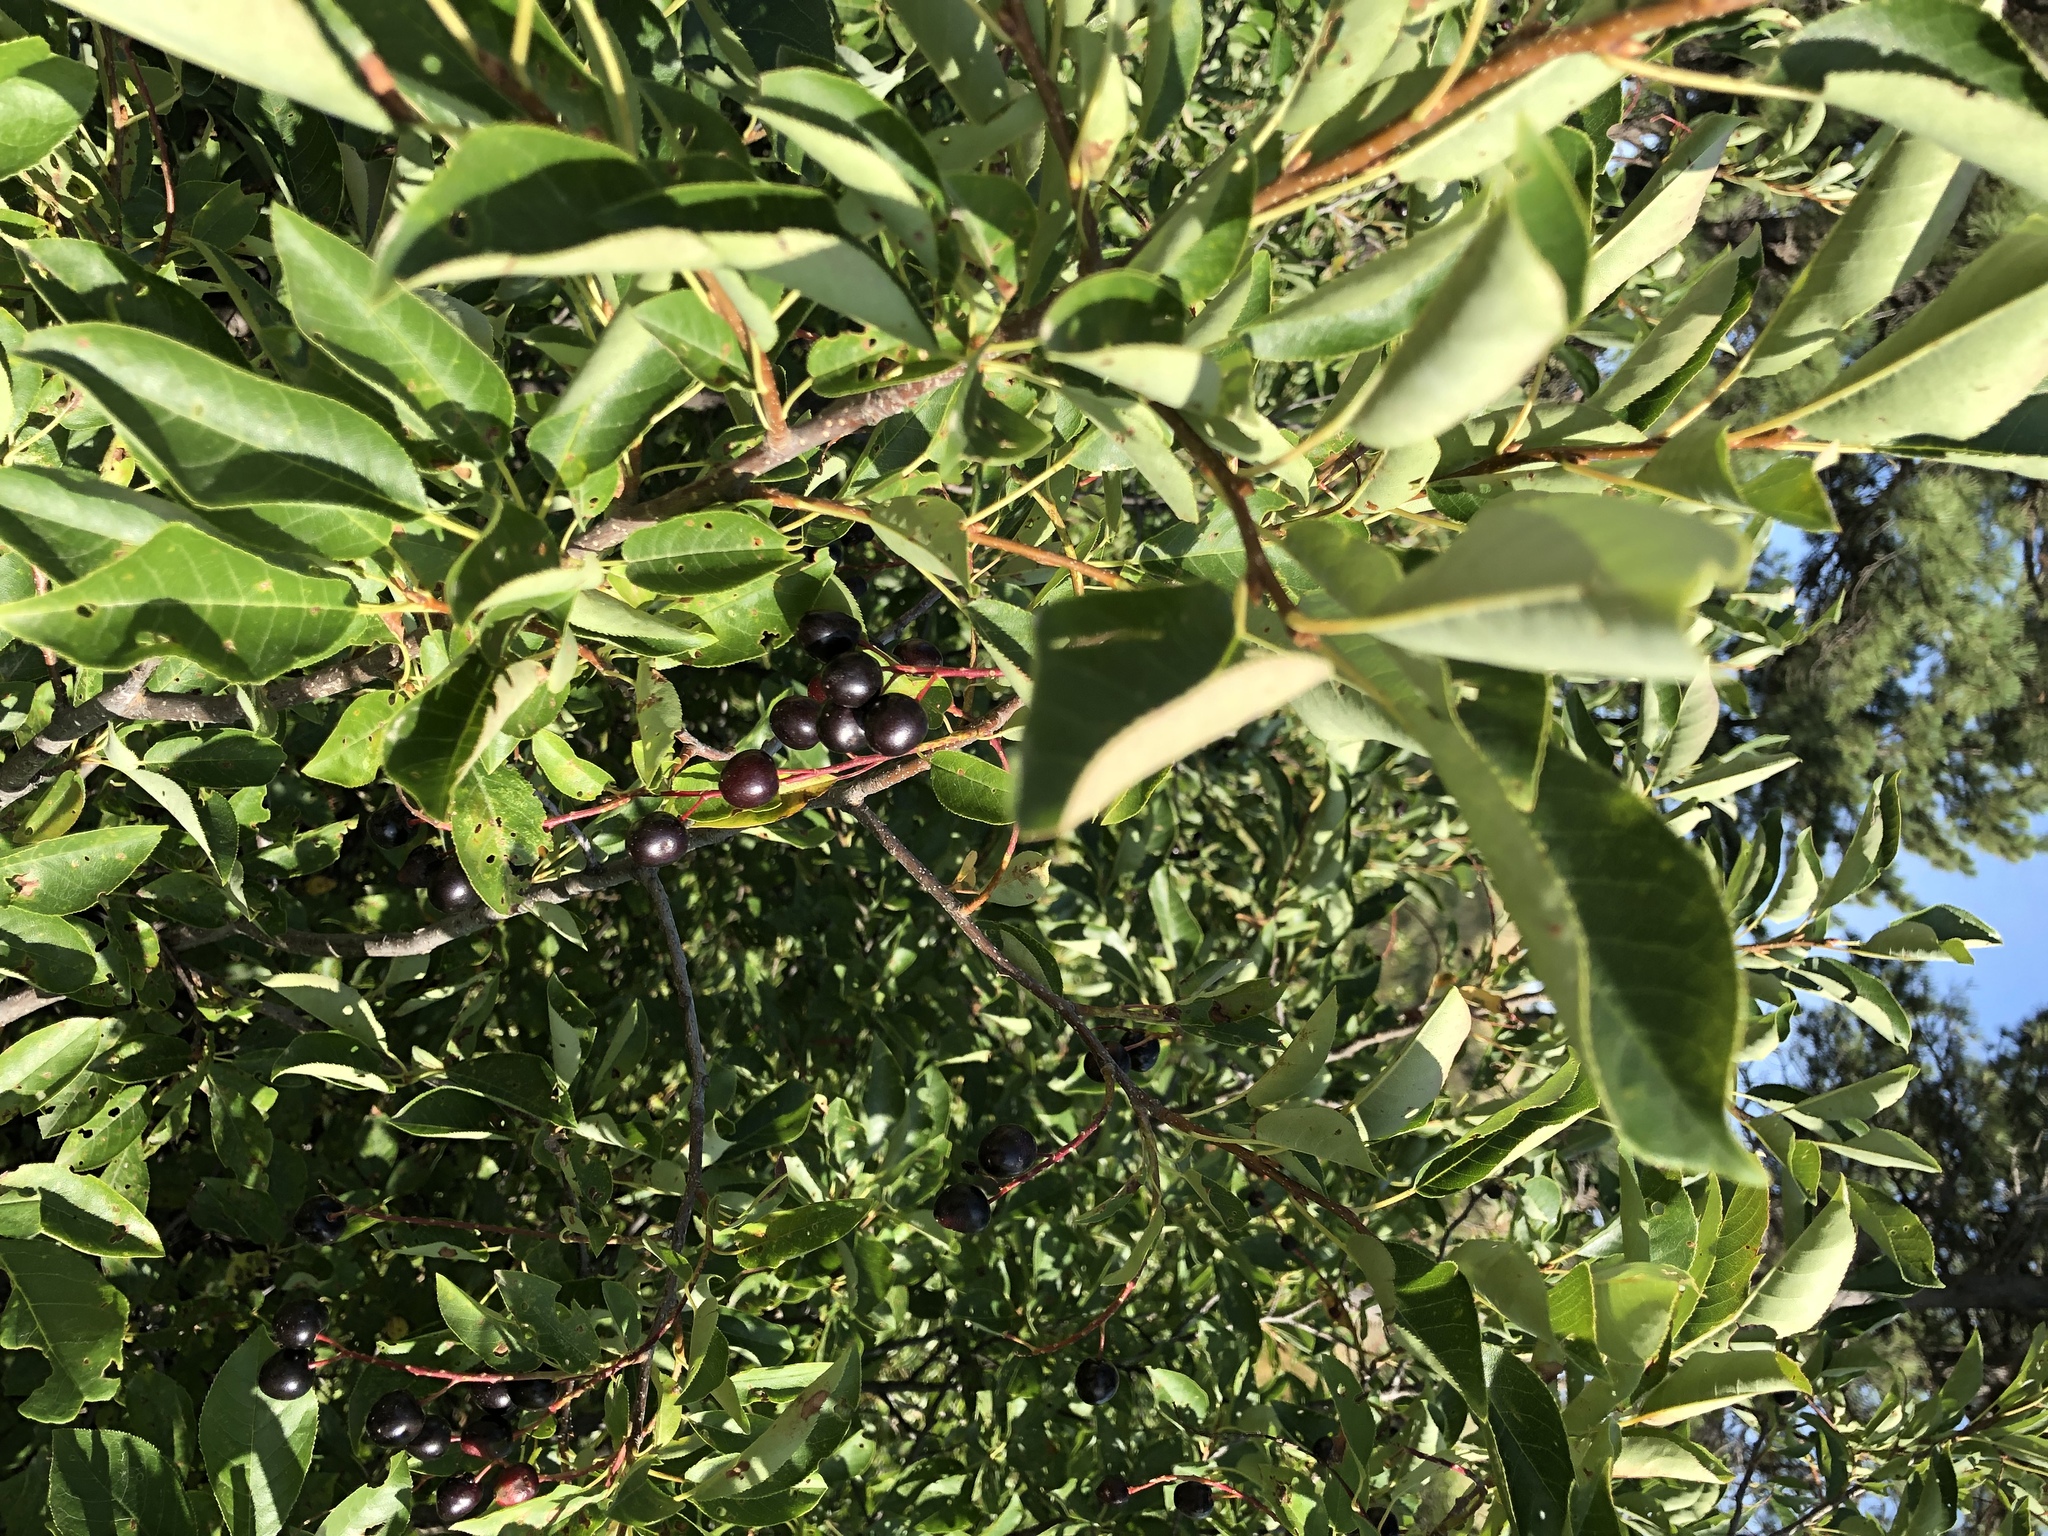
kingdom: Plantae
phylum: Tracheophyta
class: Magnoliopsida
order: Rosales
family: Rosaceae
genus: Prunus
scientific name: Prunus virginiana
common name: Chokecherry
